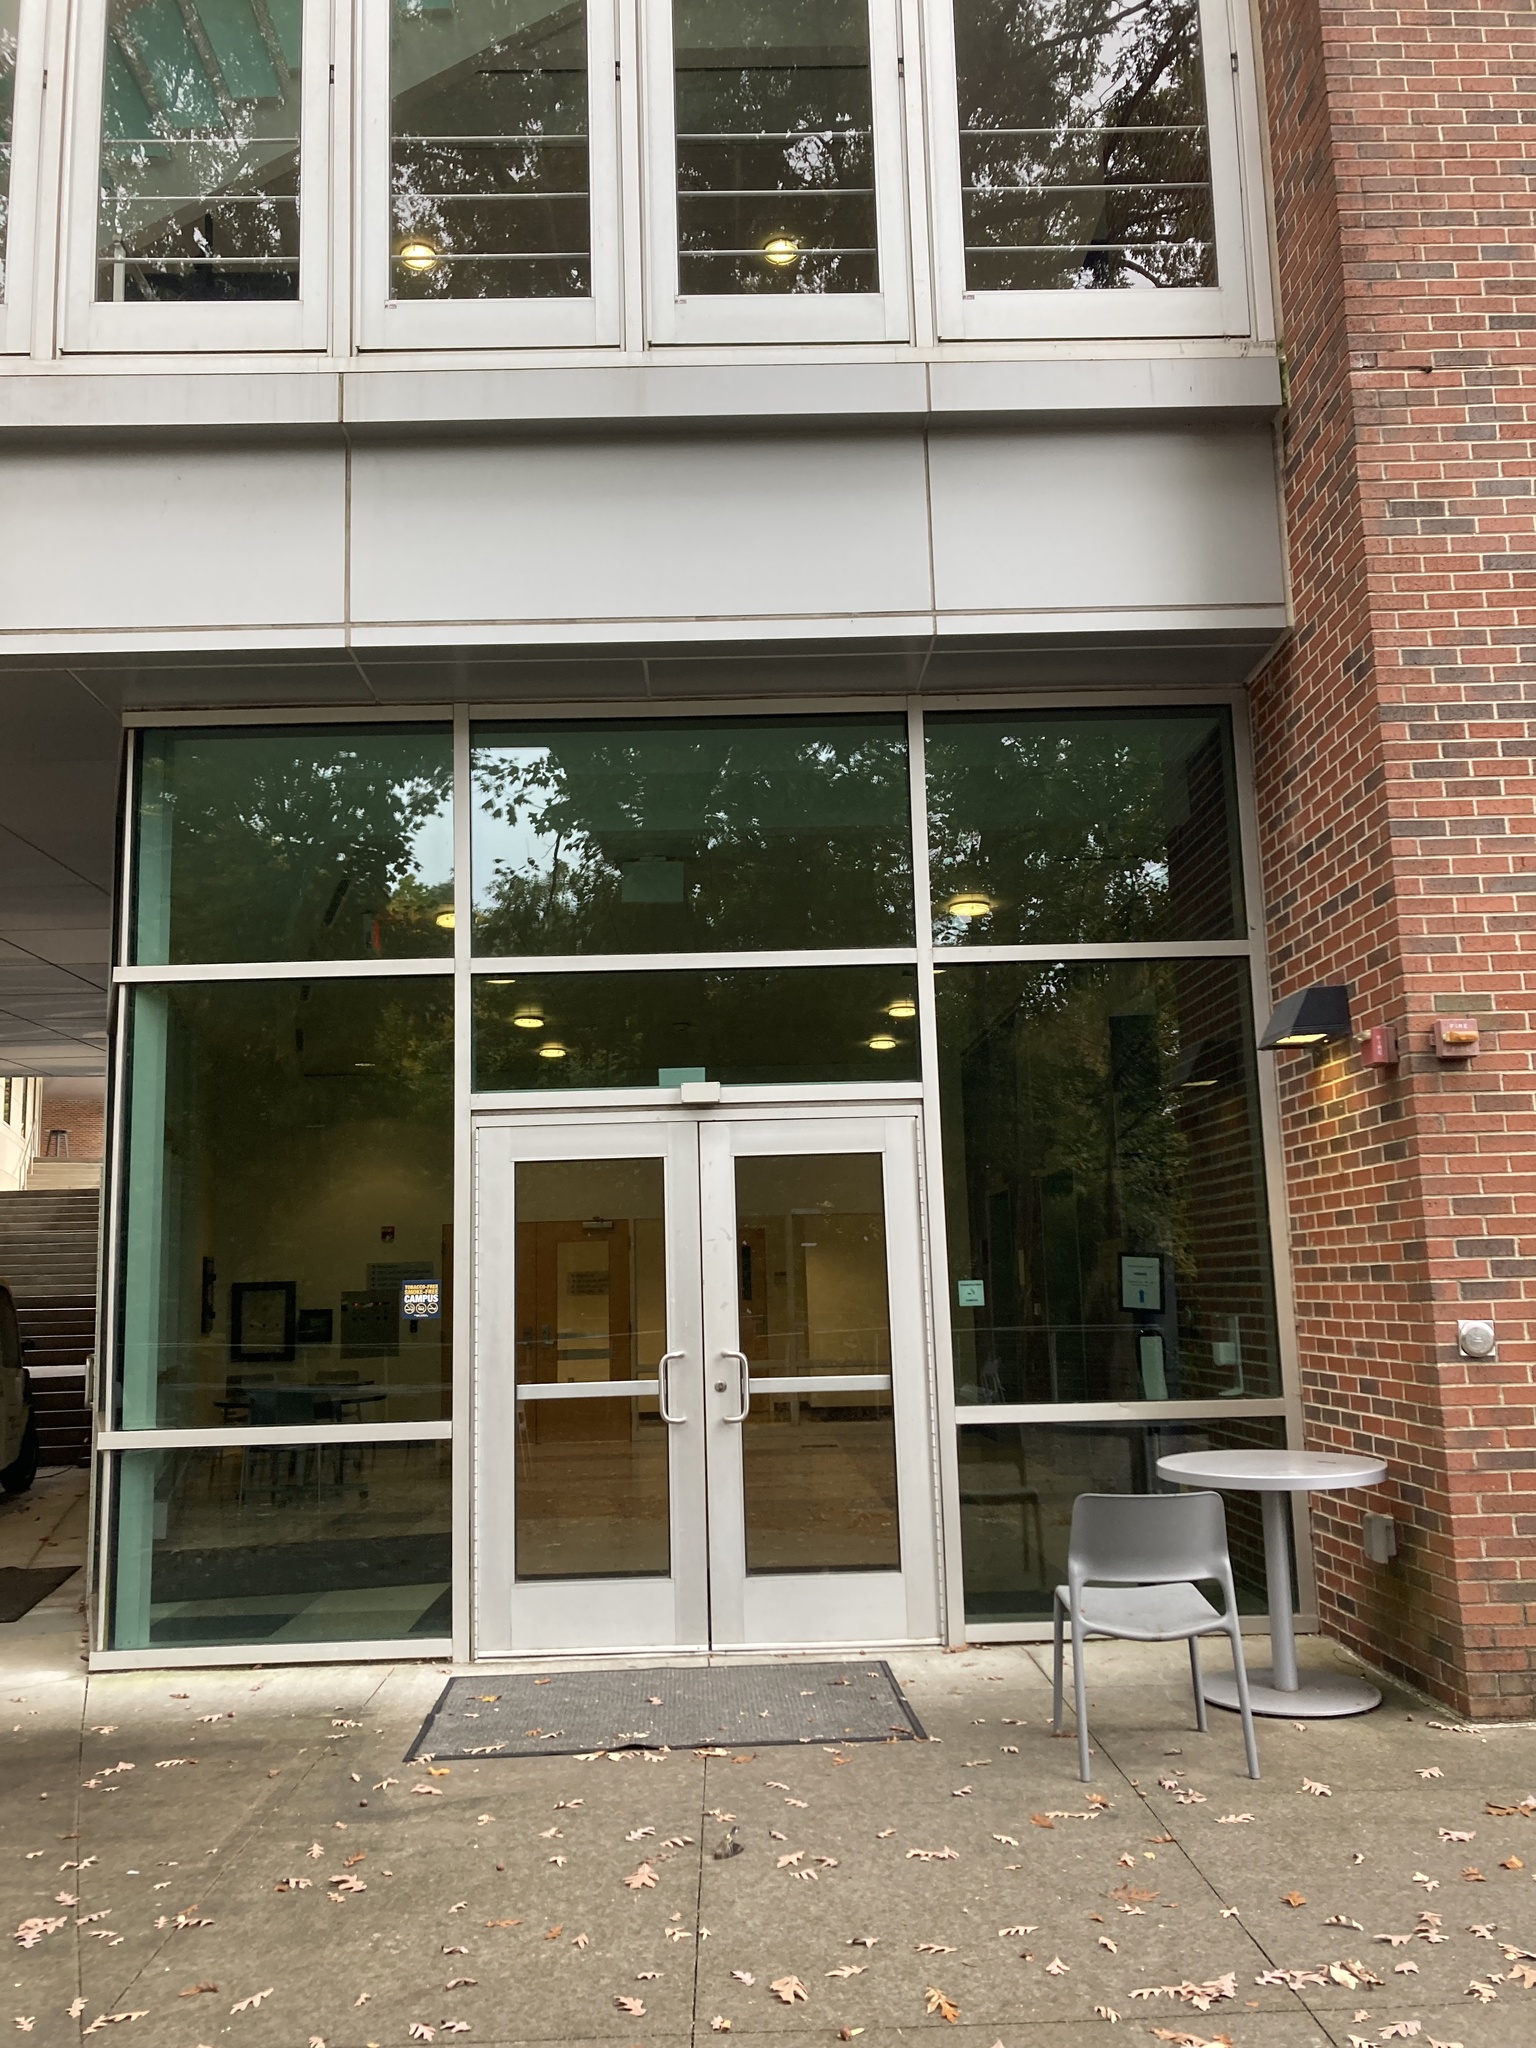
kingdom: Animalia
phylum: Chordata
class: Aves
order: Passeriformes
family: Parulidae
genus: Setophaga
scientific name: Setophaga coronata
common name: Myrtle warbler
